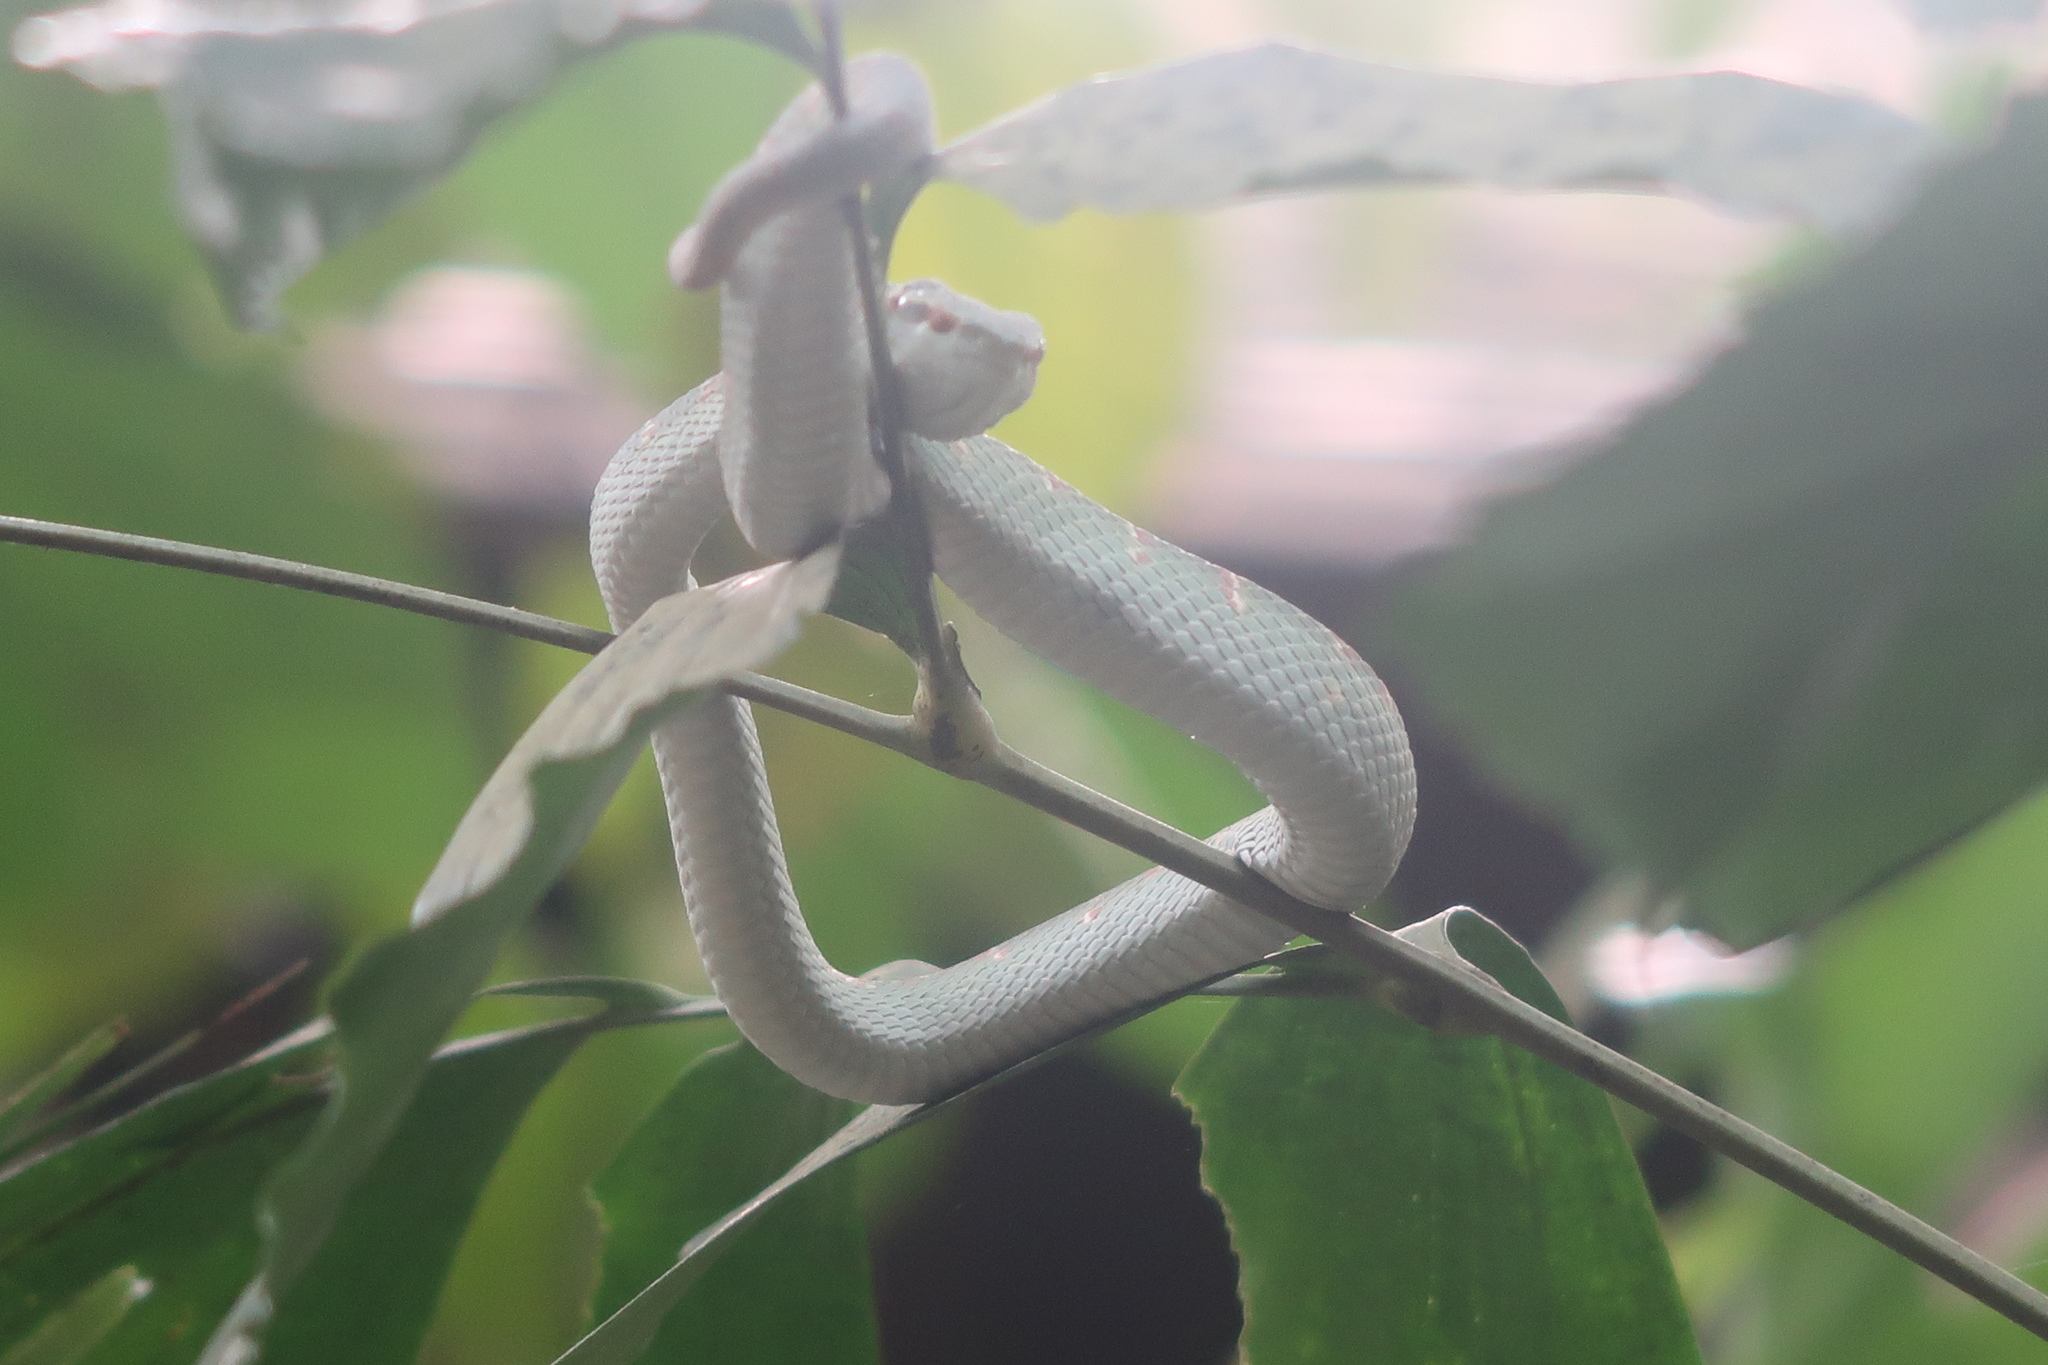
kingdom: Animalia
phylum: Chordata
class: Squamata
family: Viperidae
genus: Tropidolaemus
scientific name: Tropidolaemus wagleri
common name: Wagler's palm viper
